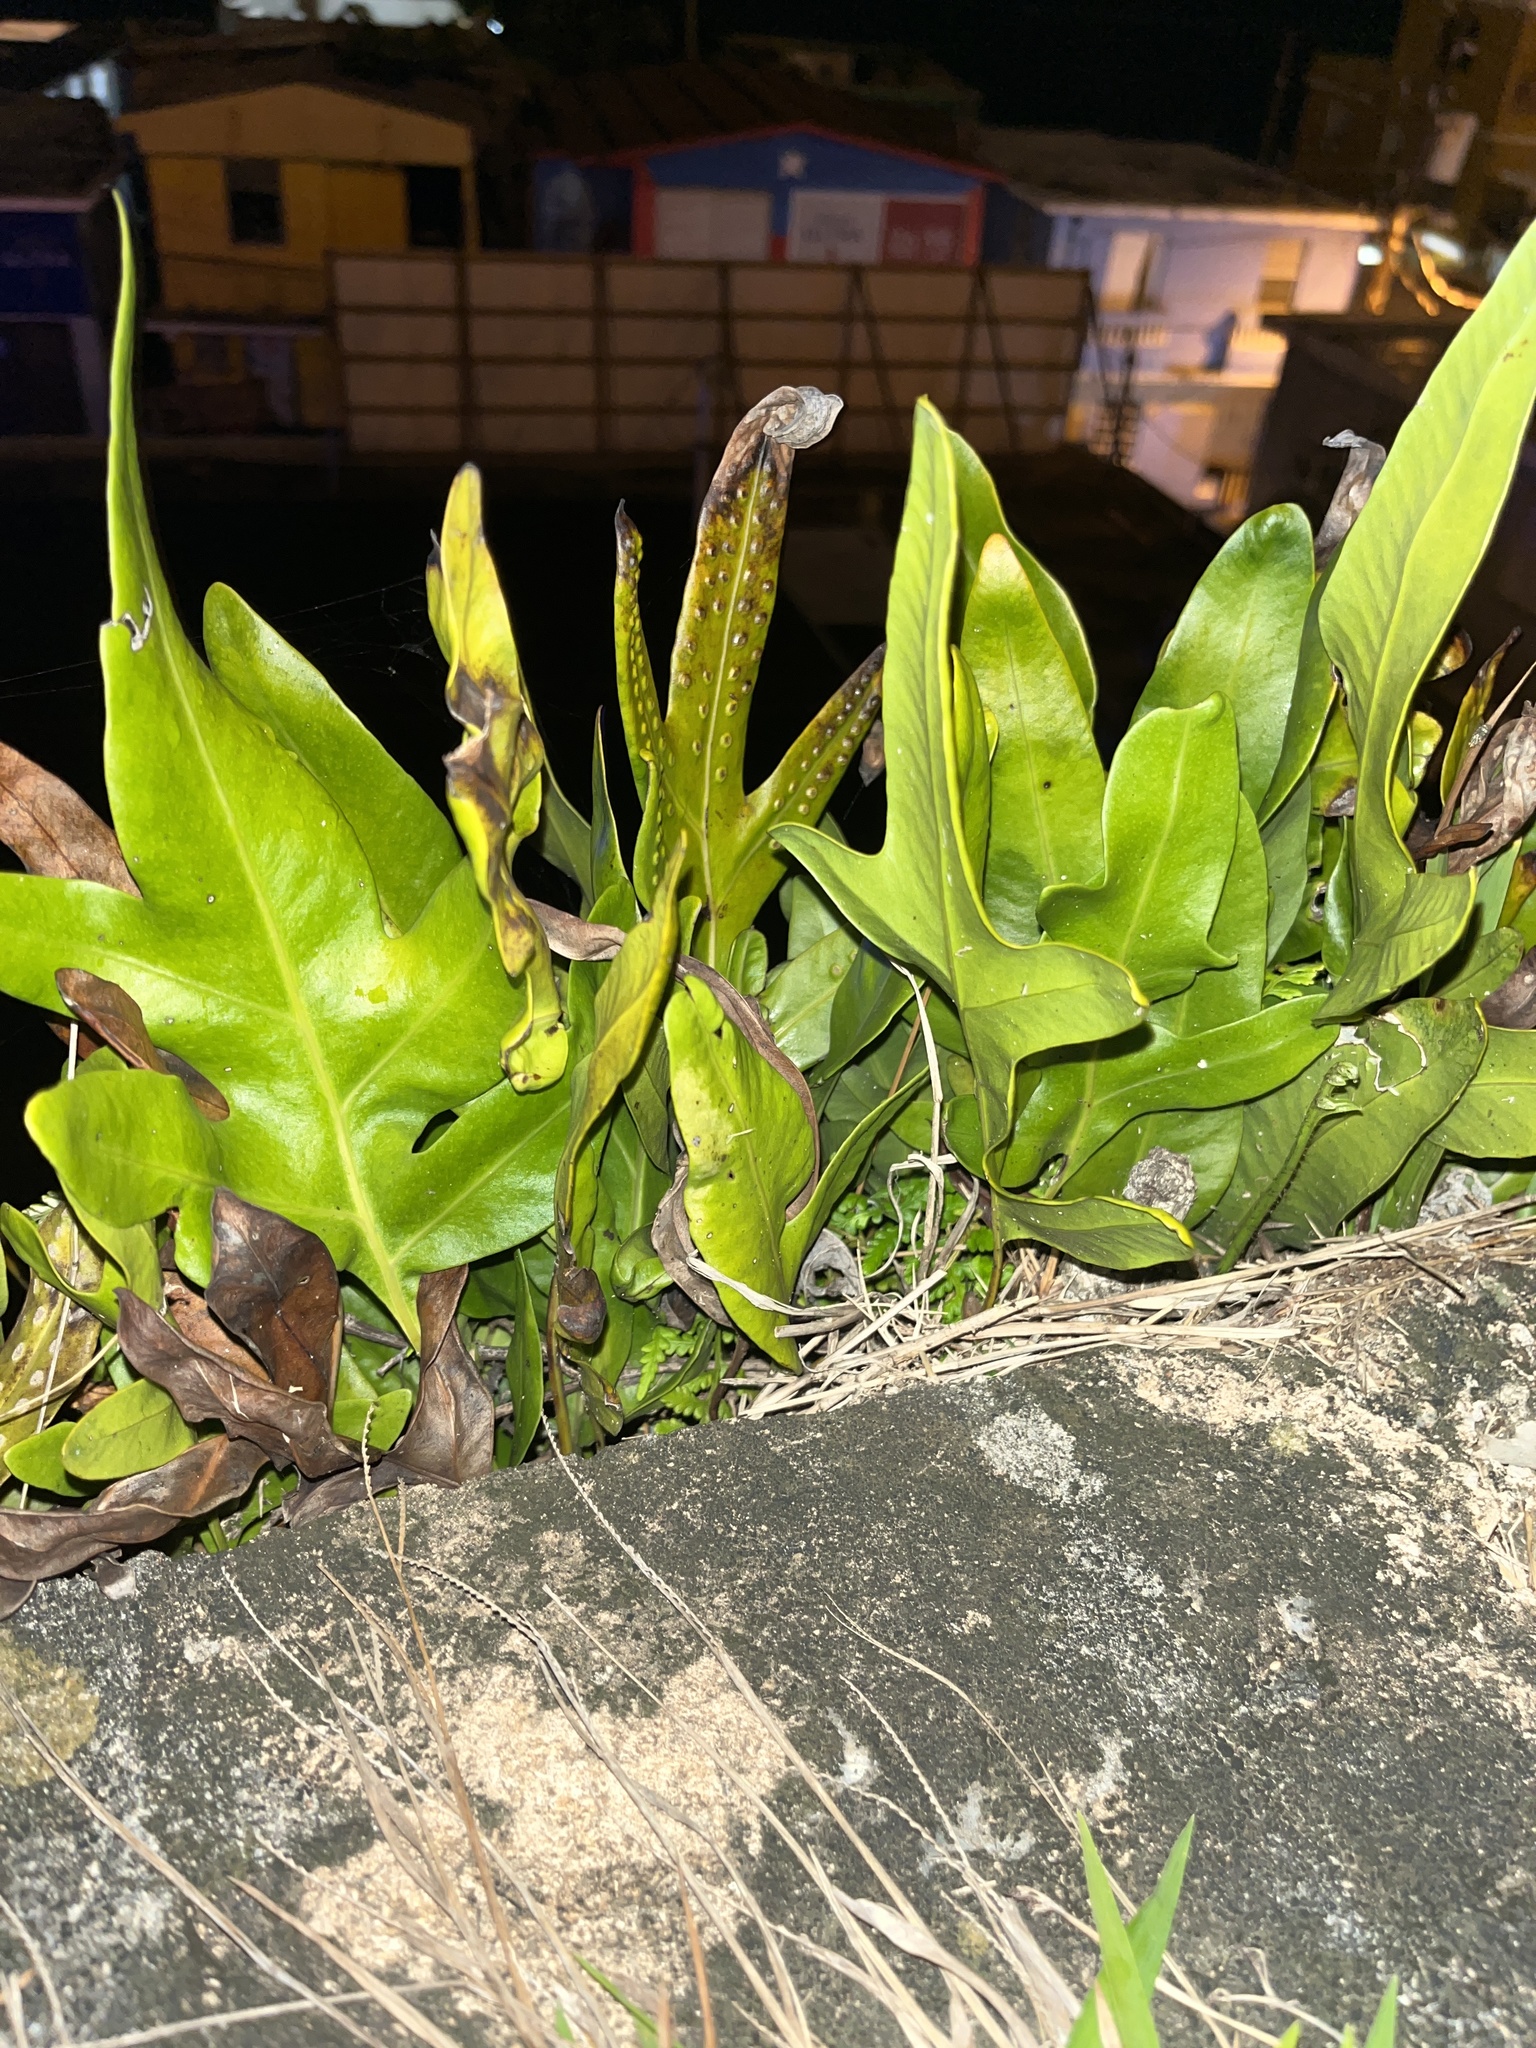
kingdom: Plantae
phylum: Tracheophyta
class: Polypodiopsida
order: Polypodiales
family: Polypodiaceae
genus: Microsorum
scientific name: Microsorum grossum
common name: Musk fern
